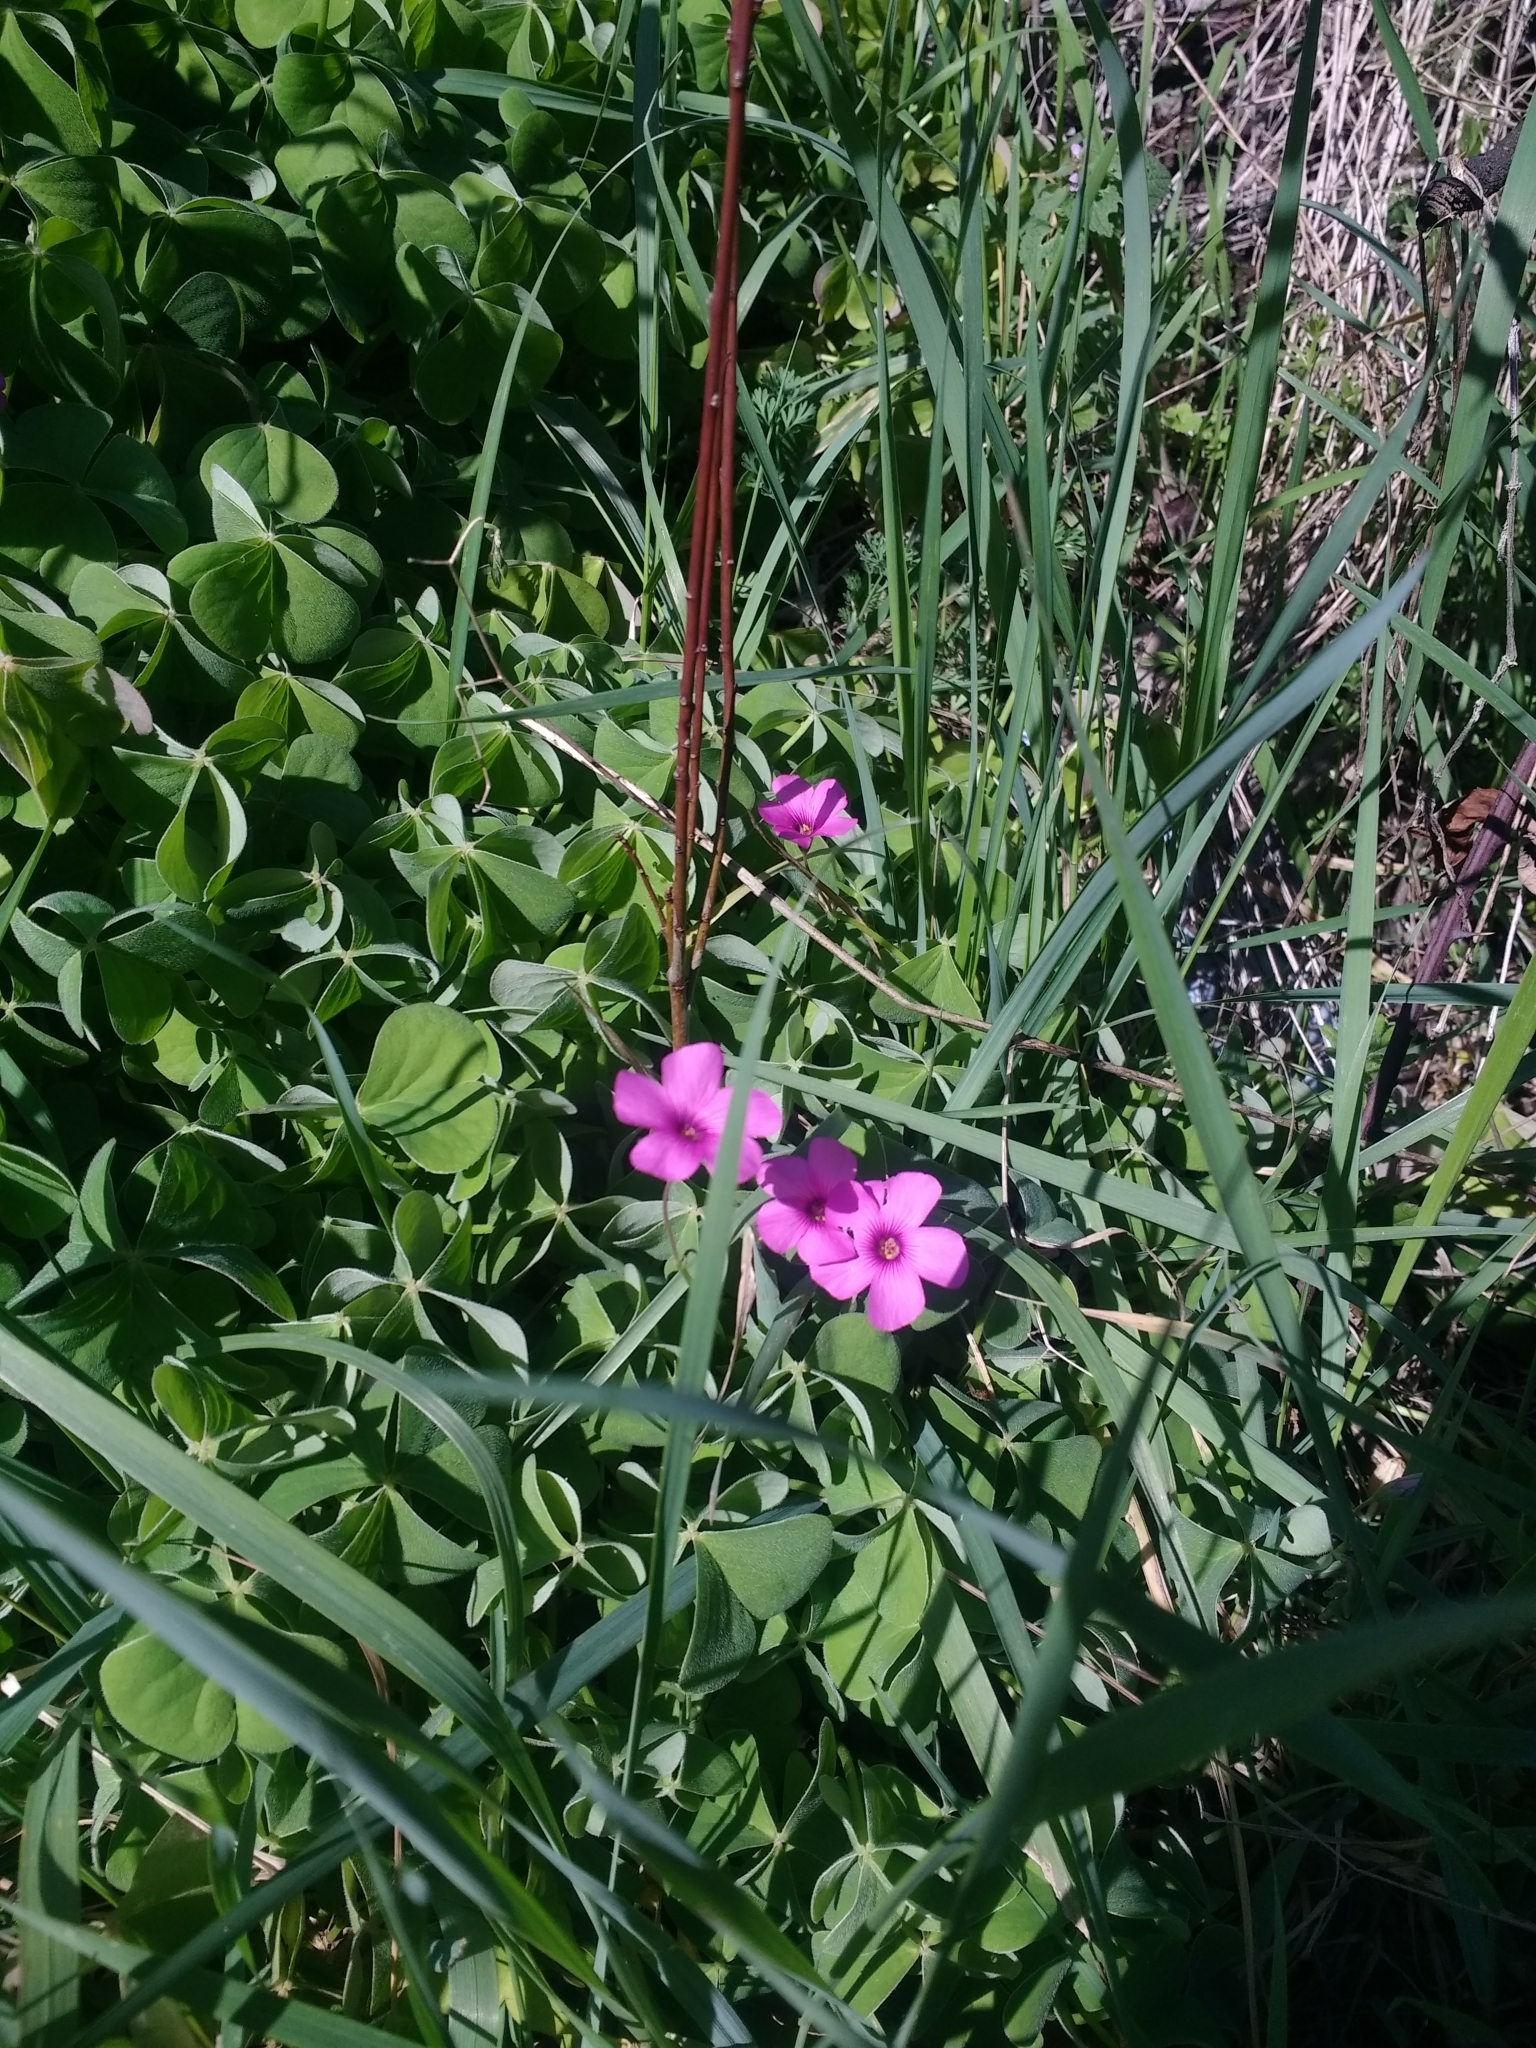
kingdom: Plantae
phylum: Tracheophyta
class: Magnoliopsida
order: Oxalidales
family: Oxalidaceae
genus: Oxalis
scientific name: Oxalis articulata
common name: Pink-sorrel
